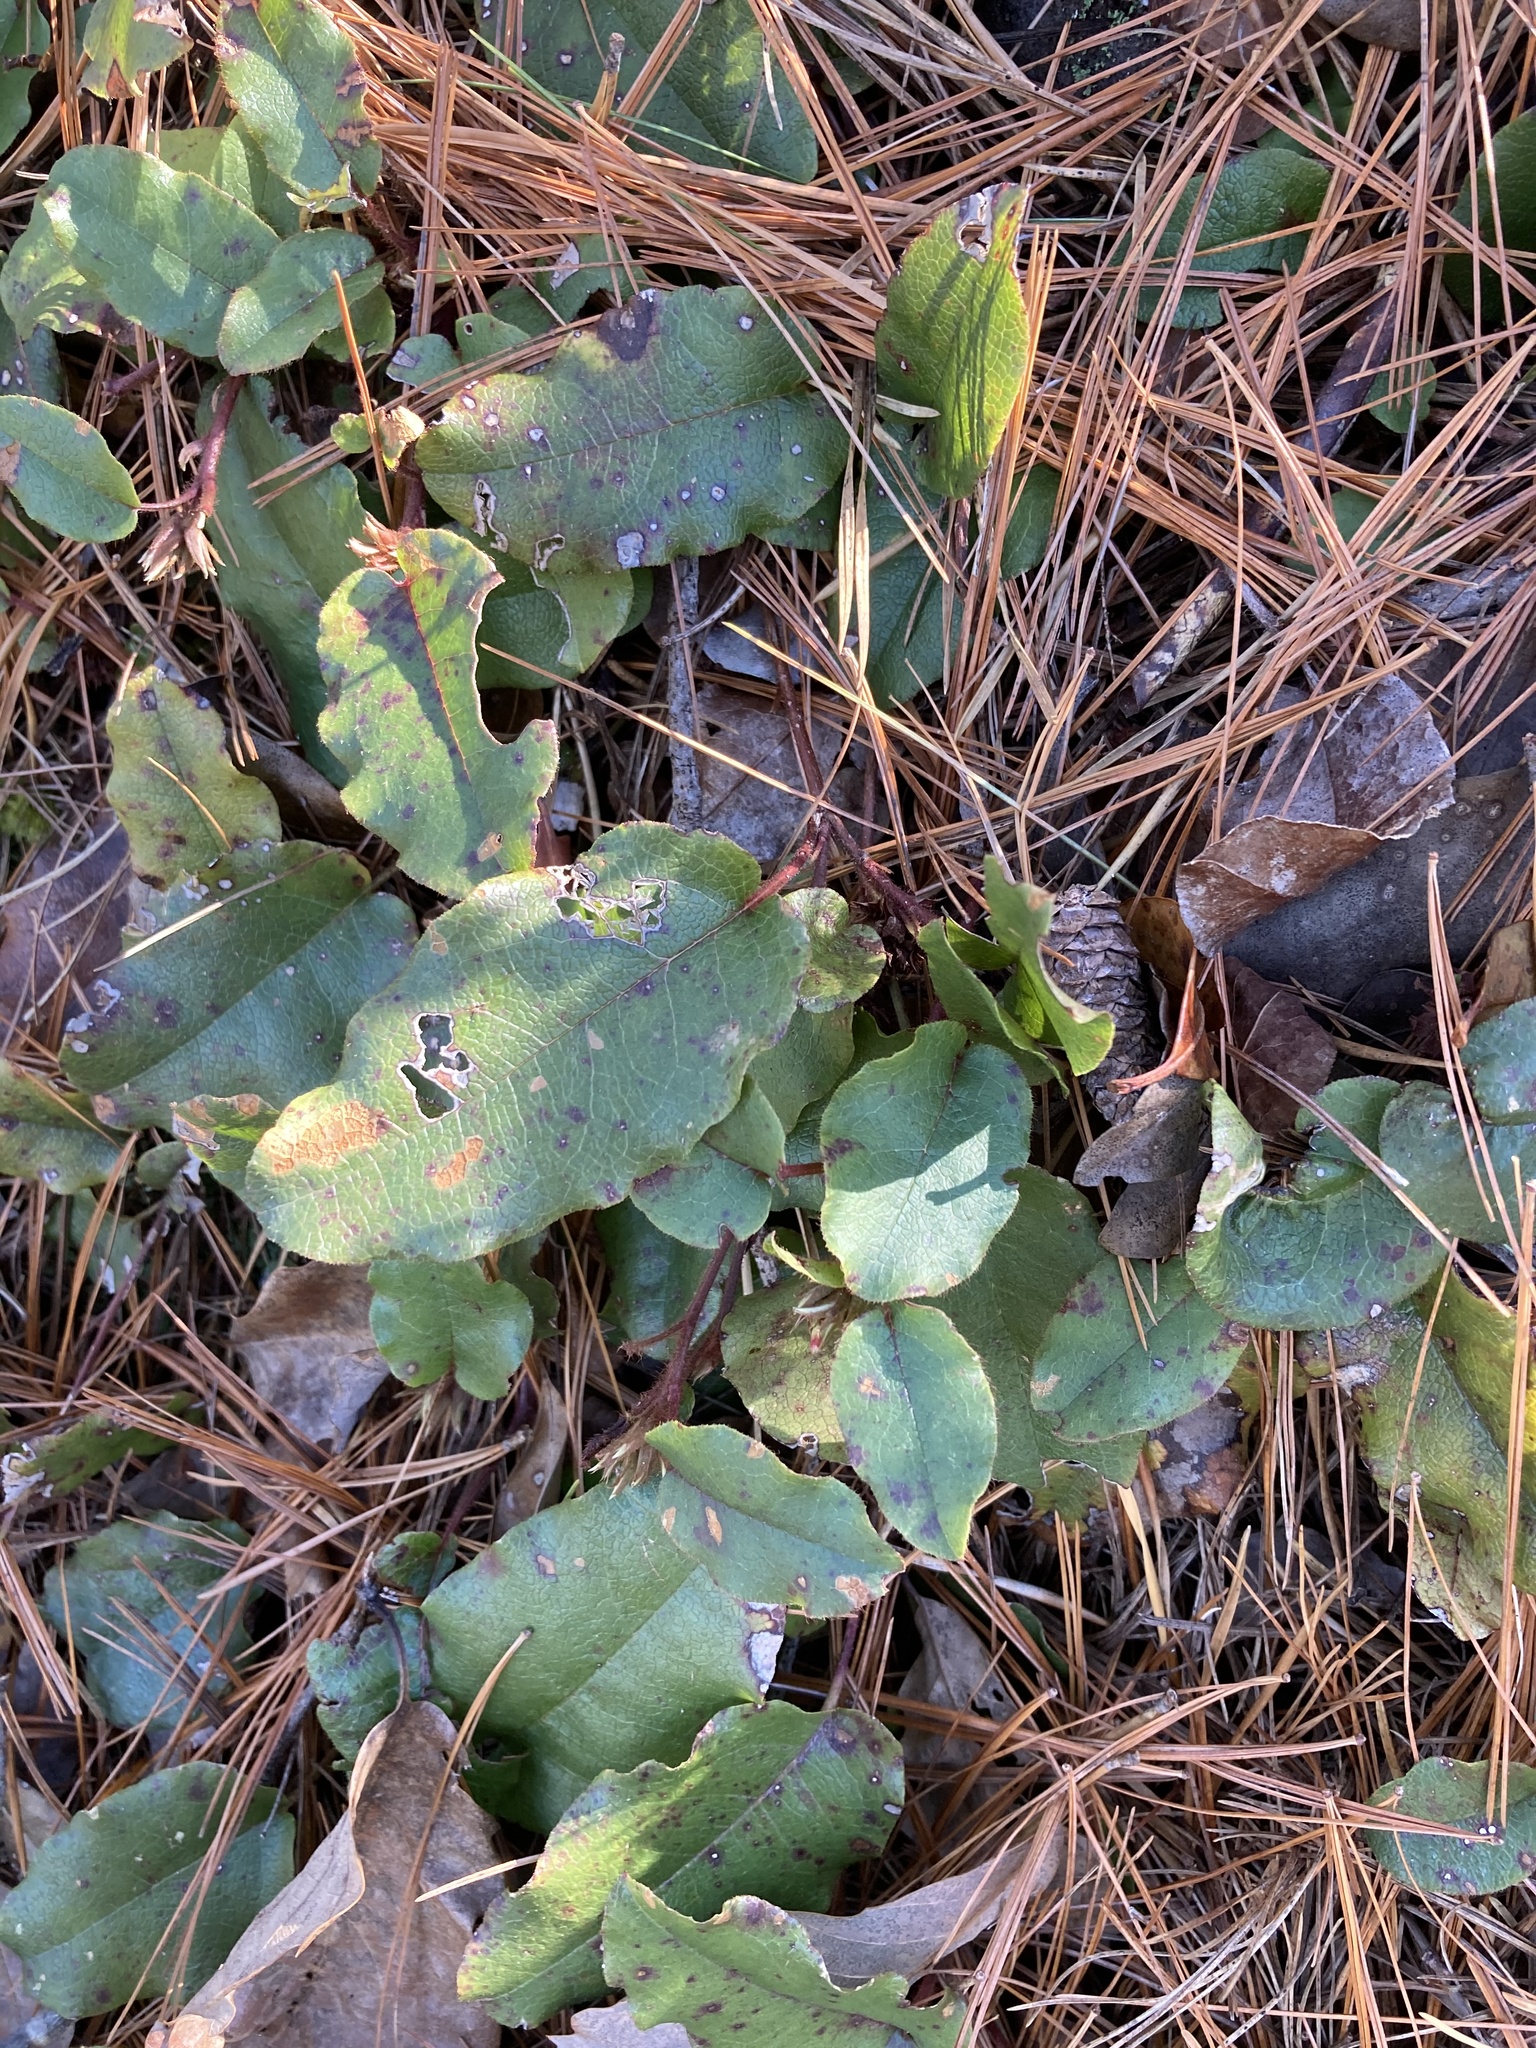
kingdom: Plantae
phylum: Tracheophyta
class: Magnoliopsida
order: Ericales
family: Ericaceae
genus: Epigaea
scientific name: Epigaea repens
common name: Gravelroot
